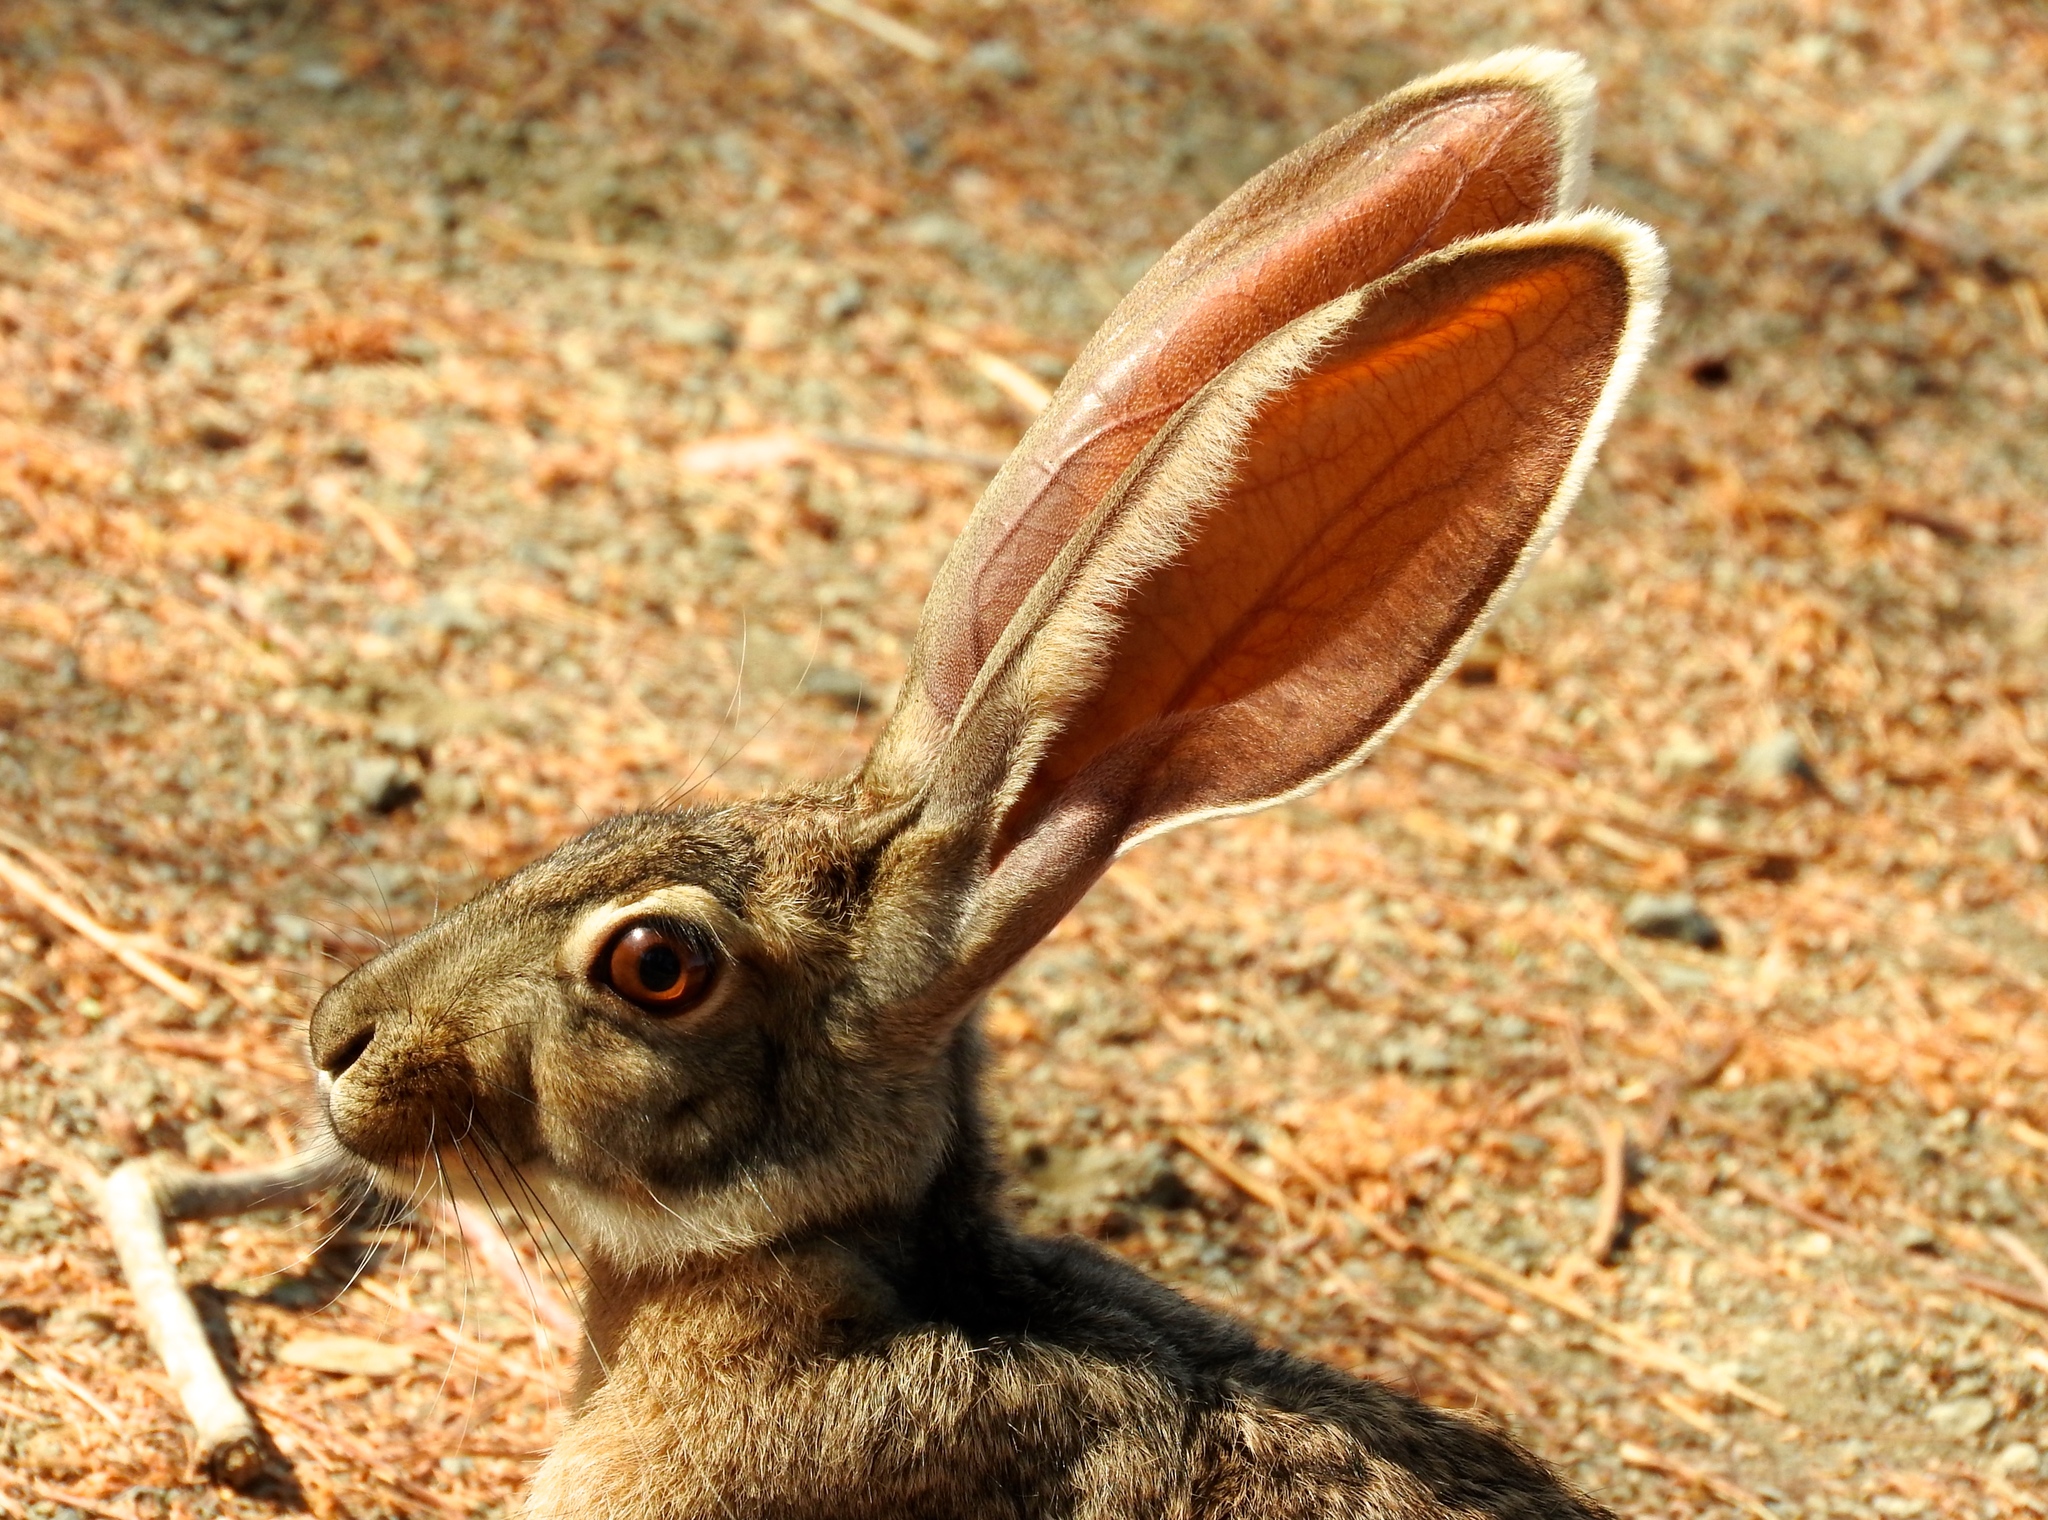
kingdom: Animalia
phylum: Chordata
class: Mammalia
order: Lagomorpha
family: Leporidae
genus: Lepus
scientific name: Lepus alleni
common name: Antelope jackrabbit
